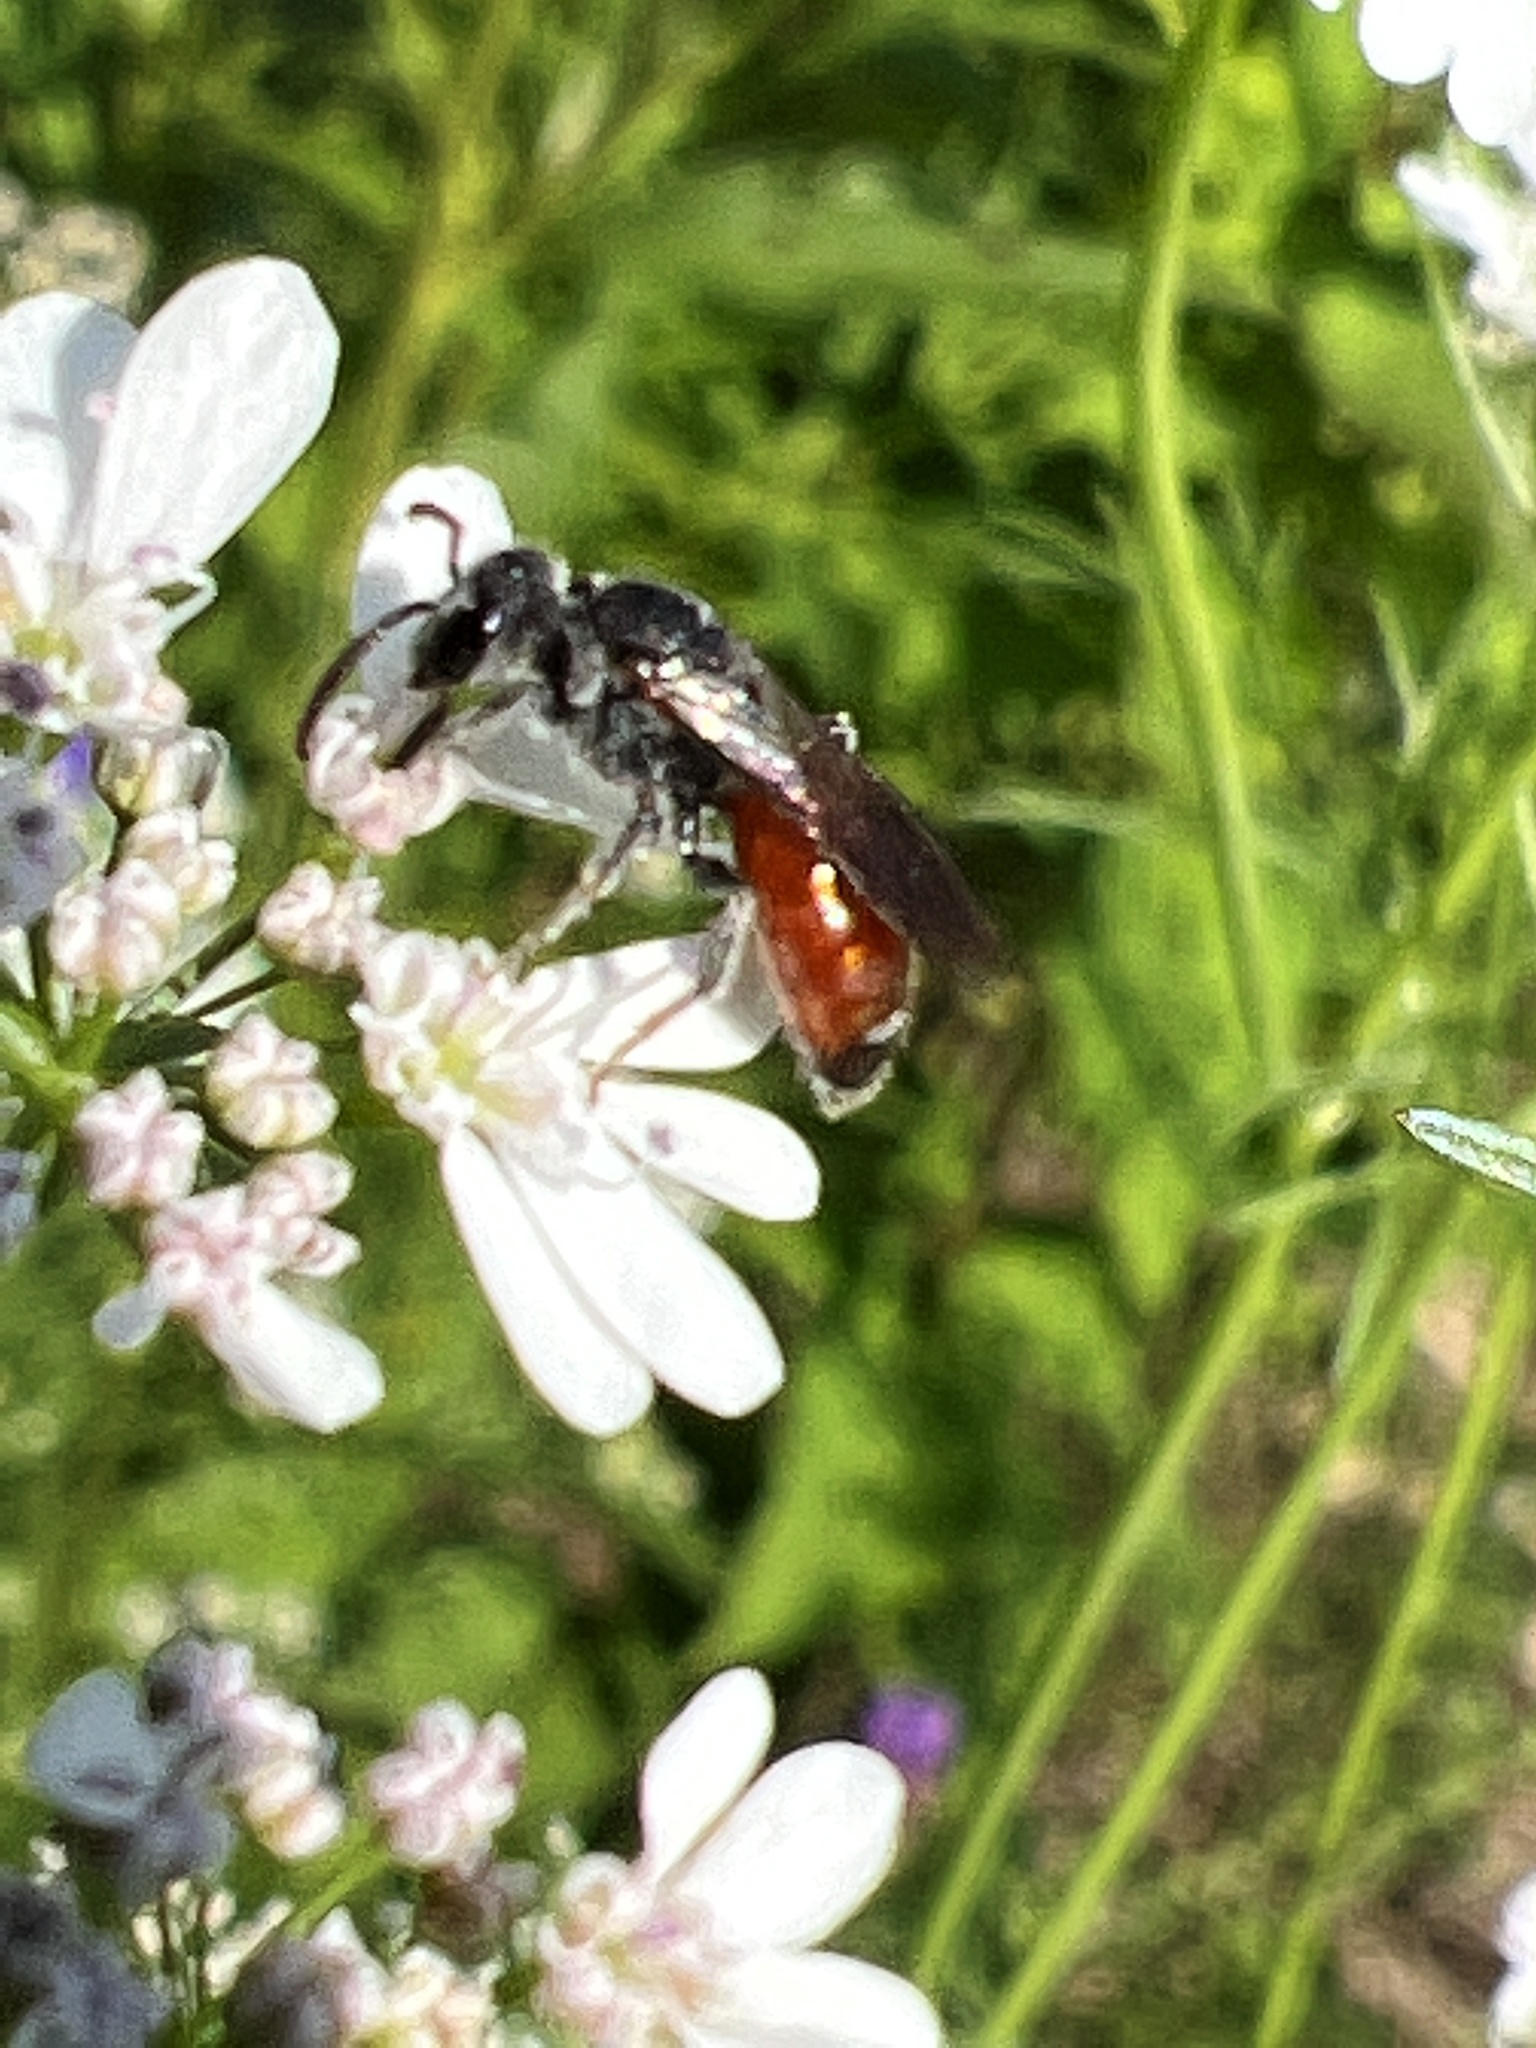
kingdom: Animalia
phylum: Arthropoda
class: Insecta
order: Hymenoptera
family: Halictidae
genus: Sphecodes
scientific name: Sphecodes
